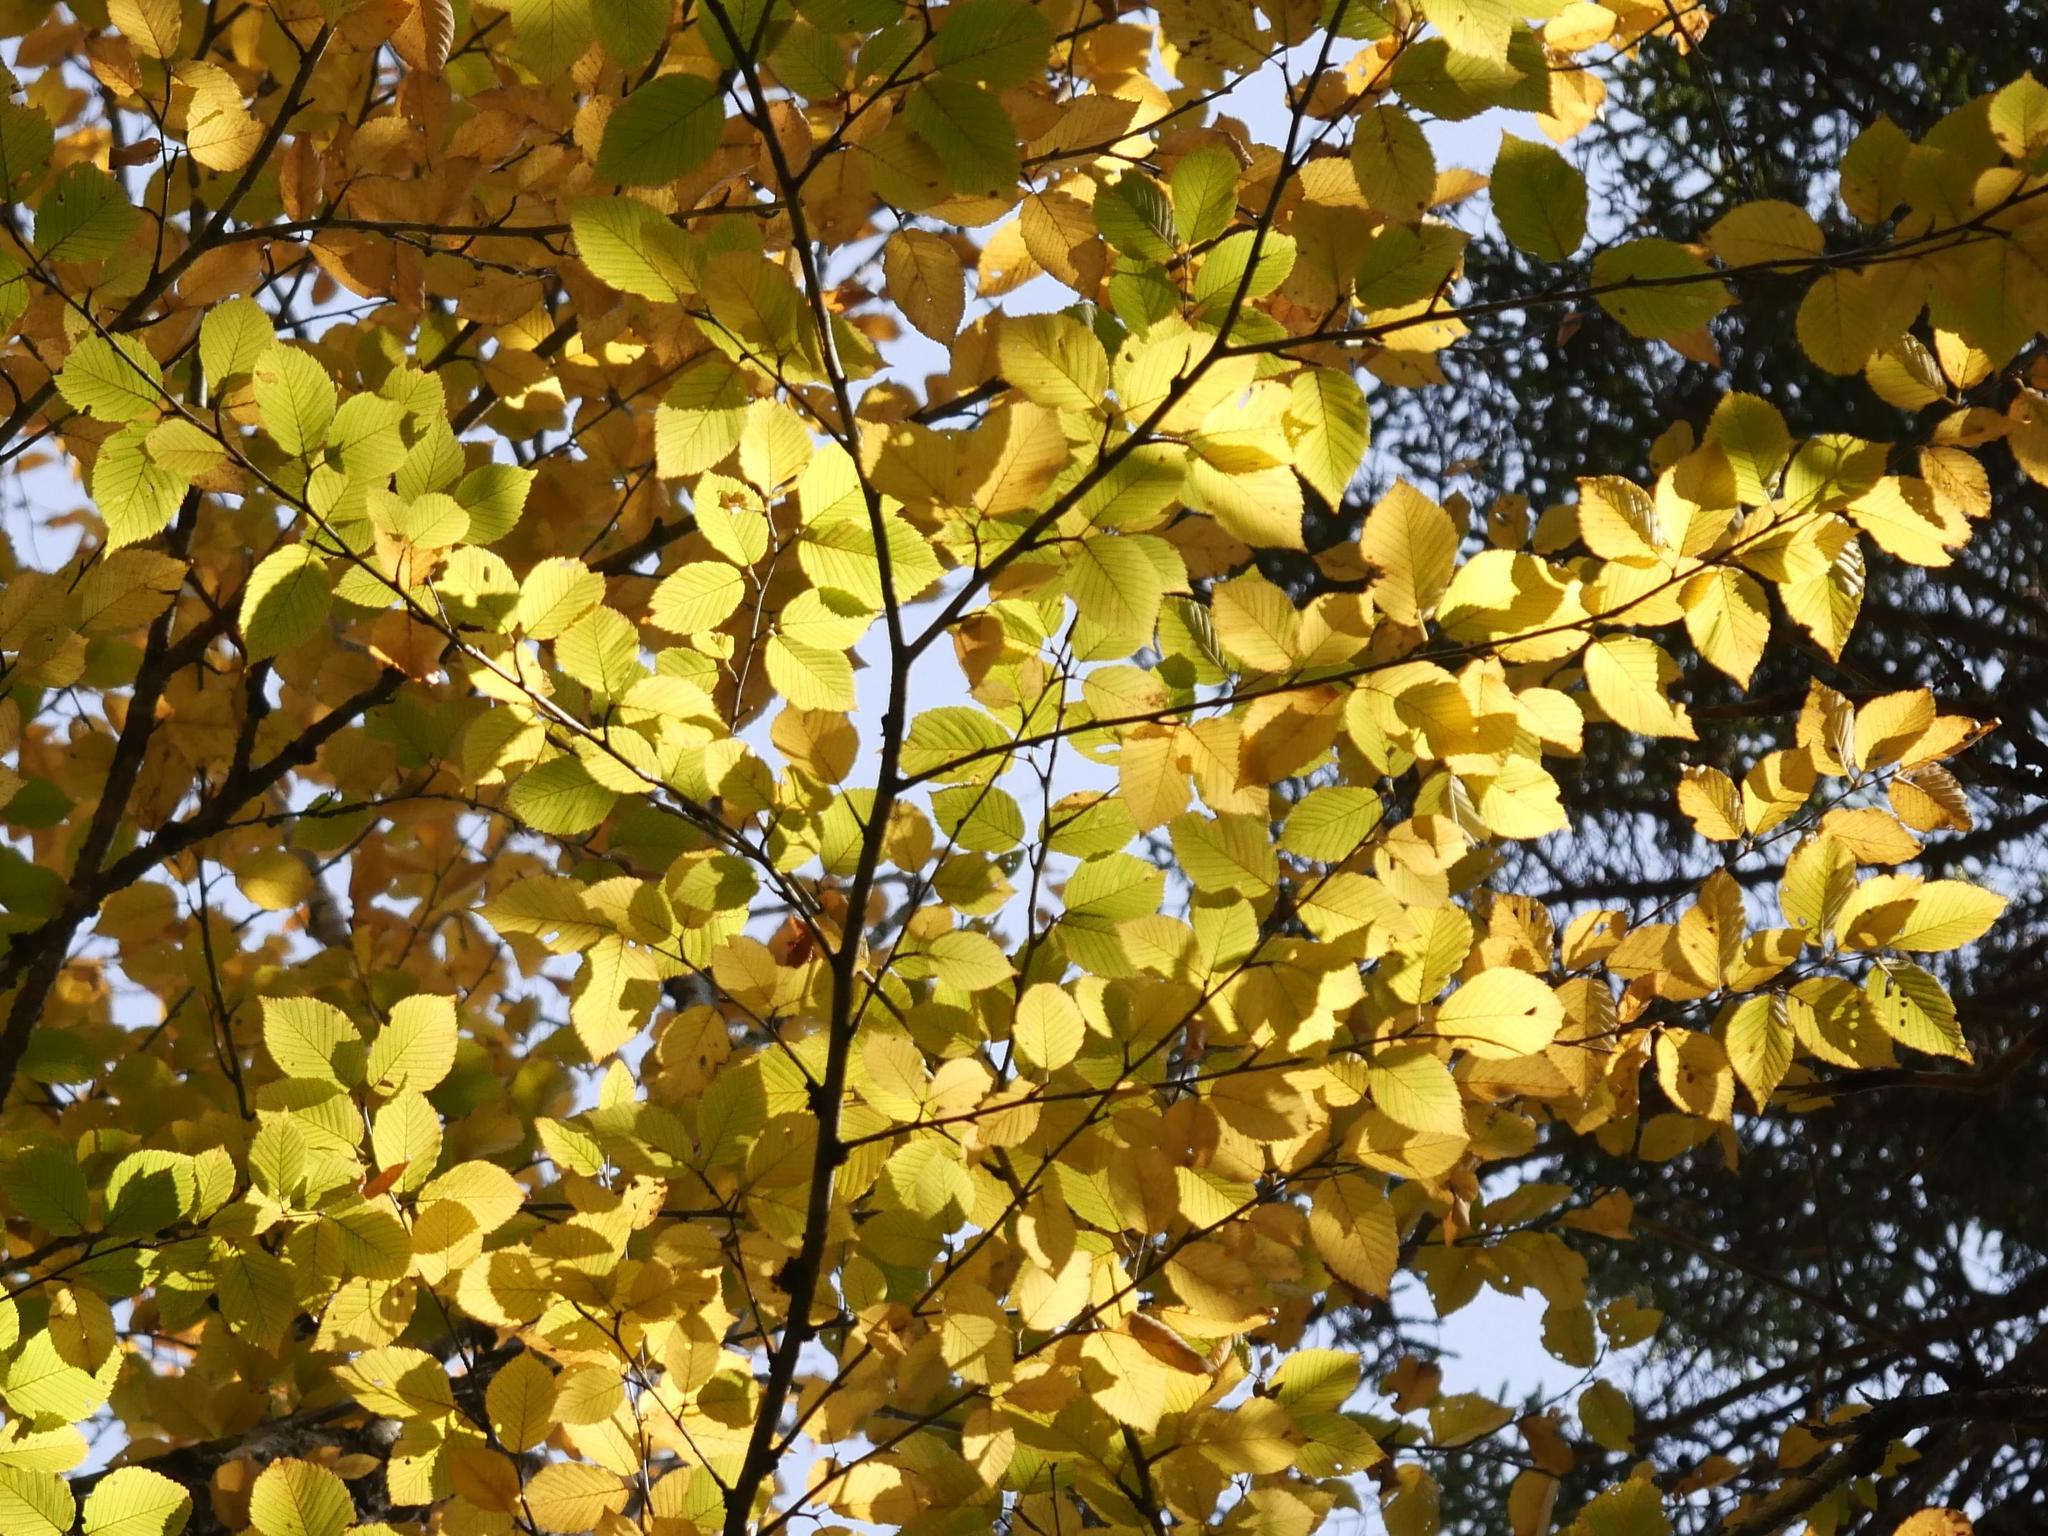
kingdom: Plantae
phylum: Tracheophyta
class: Magnoliopsida
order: Fagales
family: Betulaceae
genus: Betula
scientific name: Betula alleghaniensis
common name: Yellow birch
